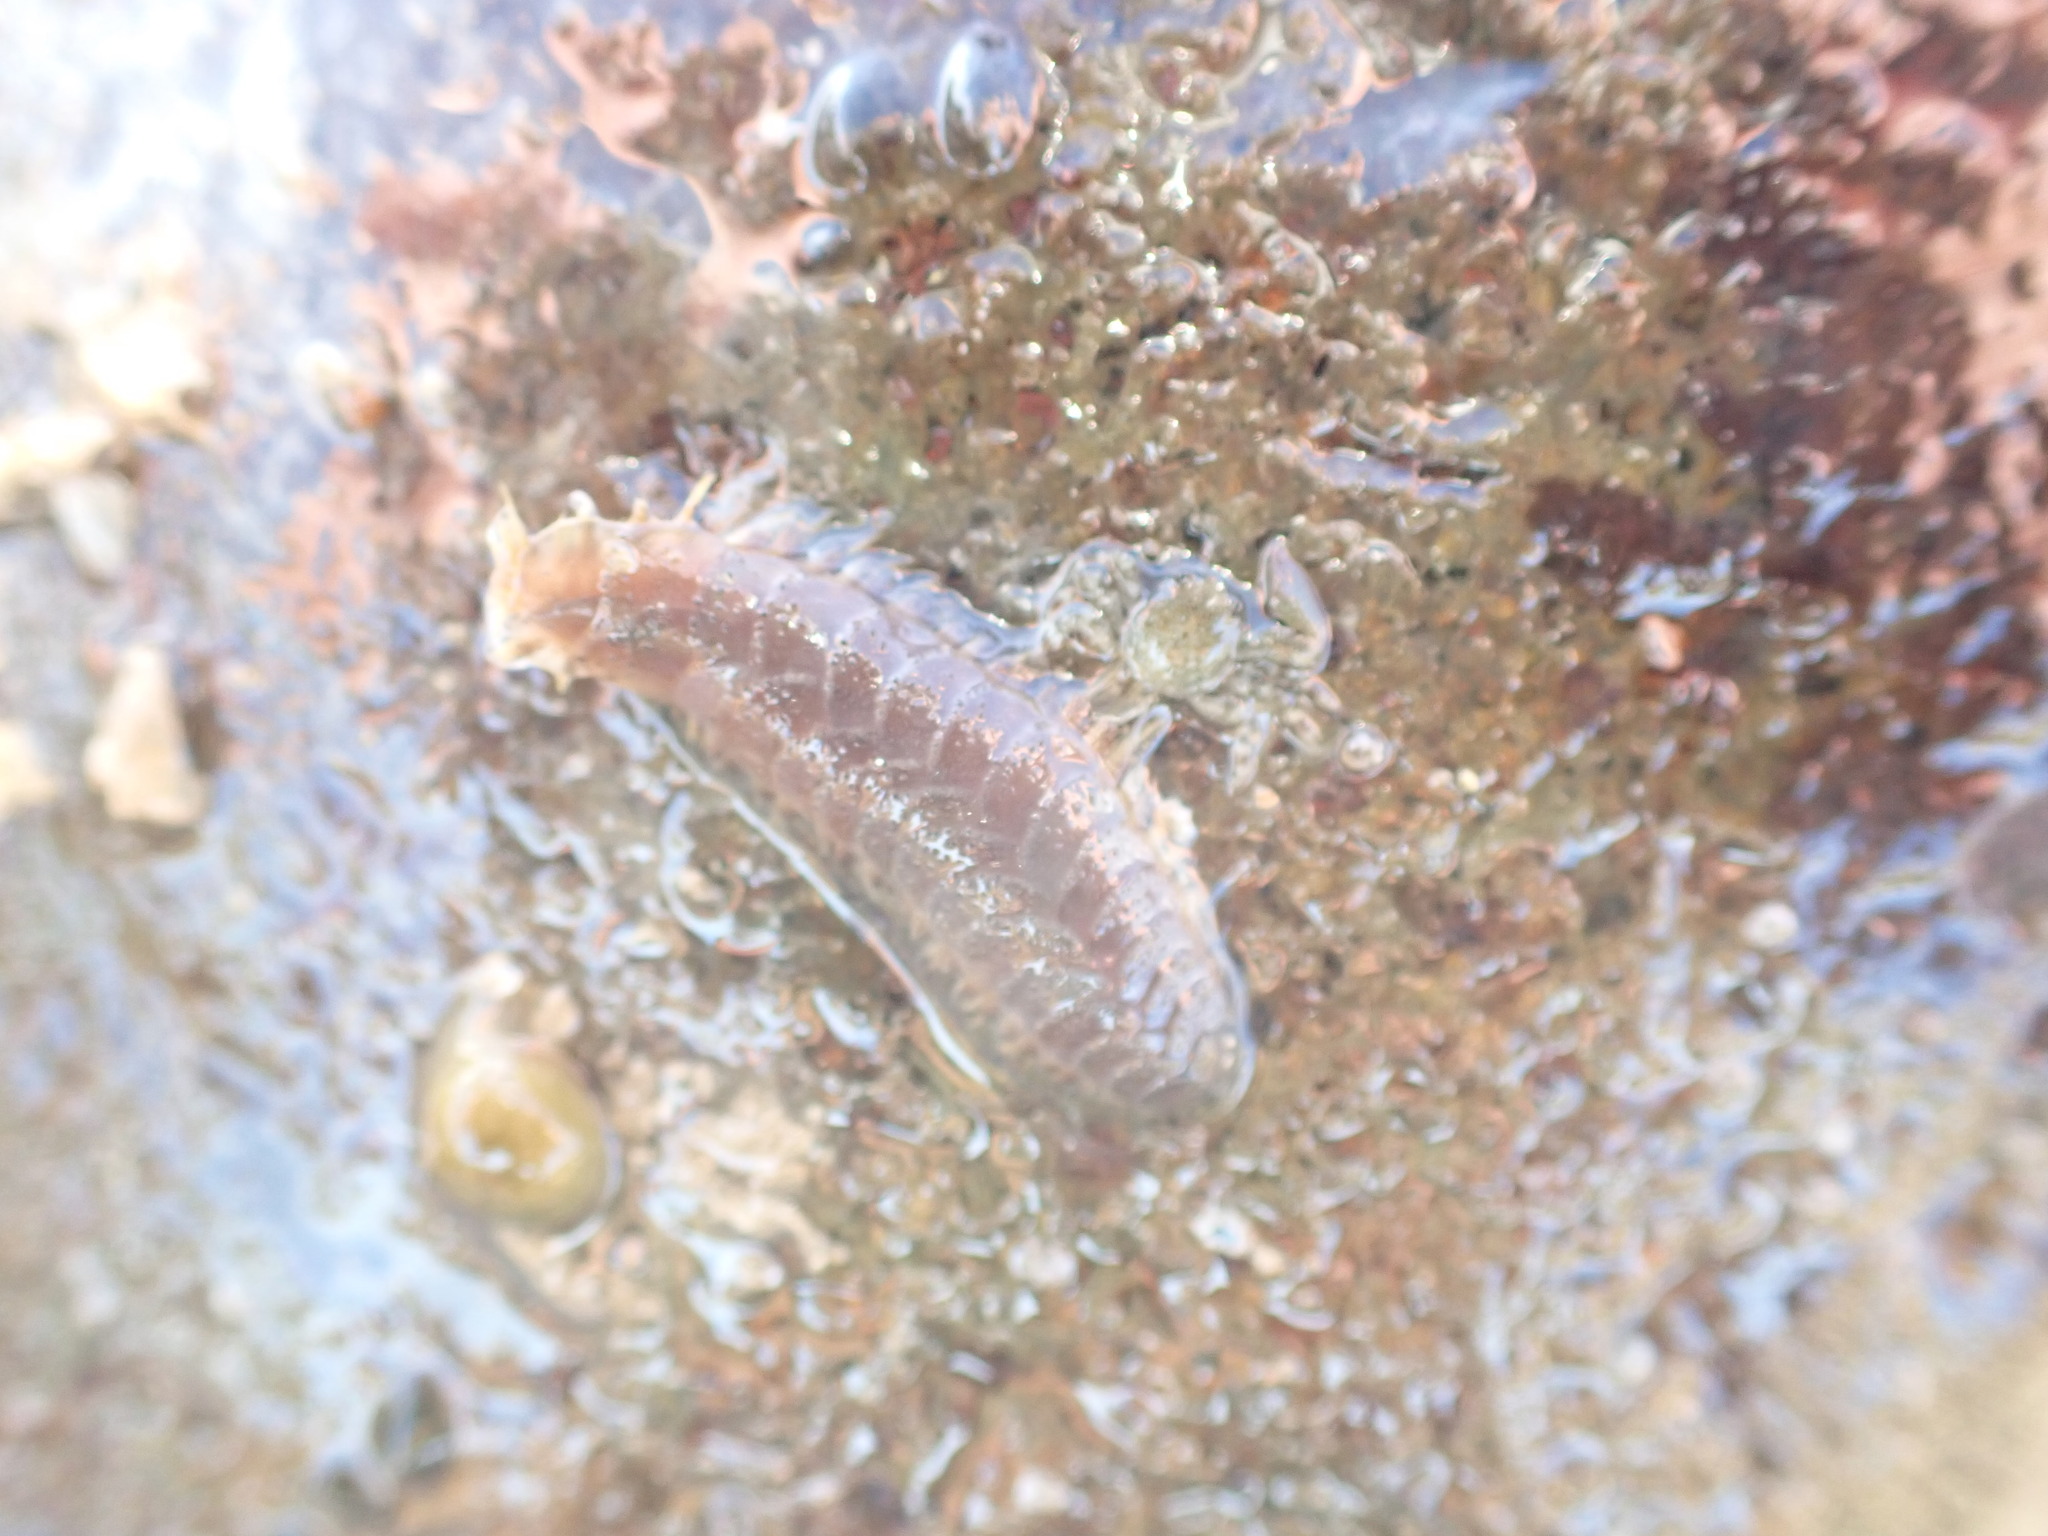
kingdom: Animalia
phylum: Annelida
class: Polychaeta
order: Phyllodocida
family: Polynoidae
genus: Paralepidonotus
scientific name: Paralepidonotus ampulliferus
